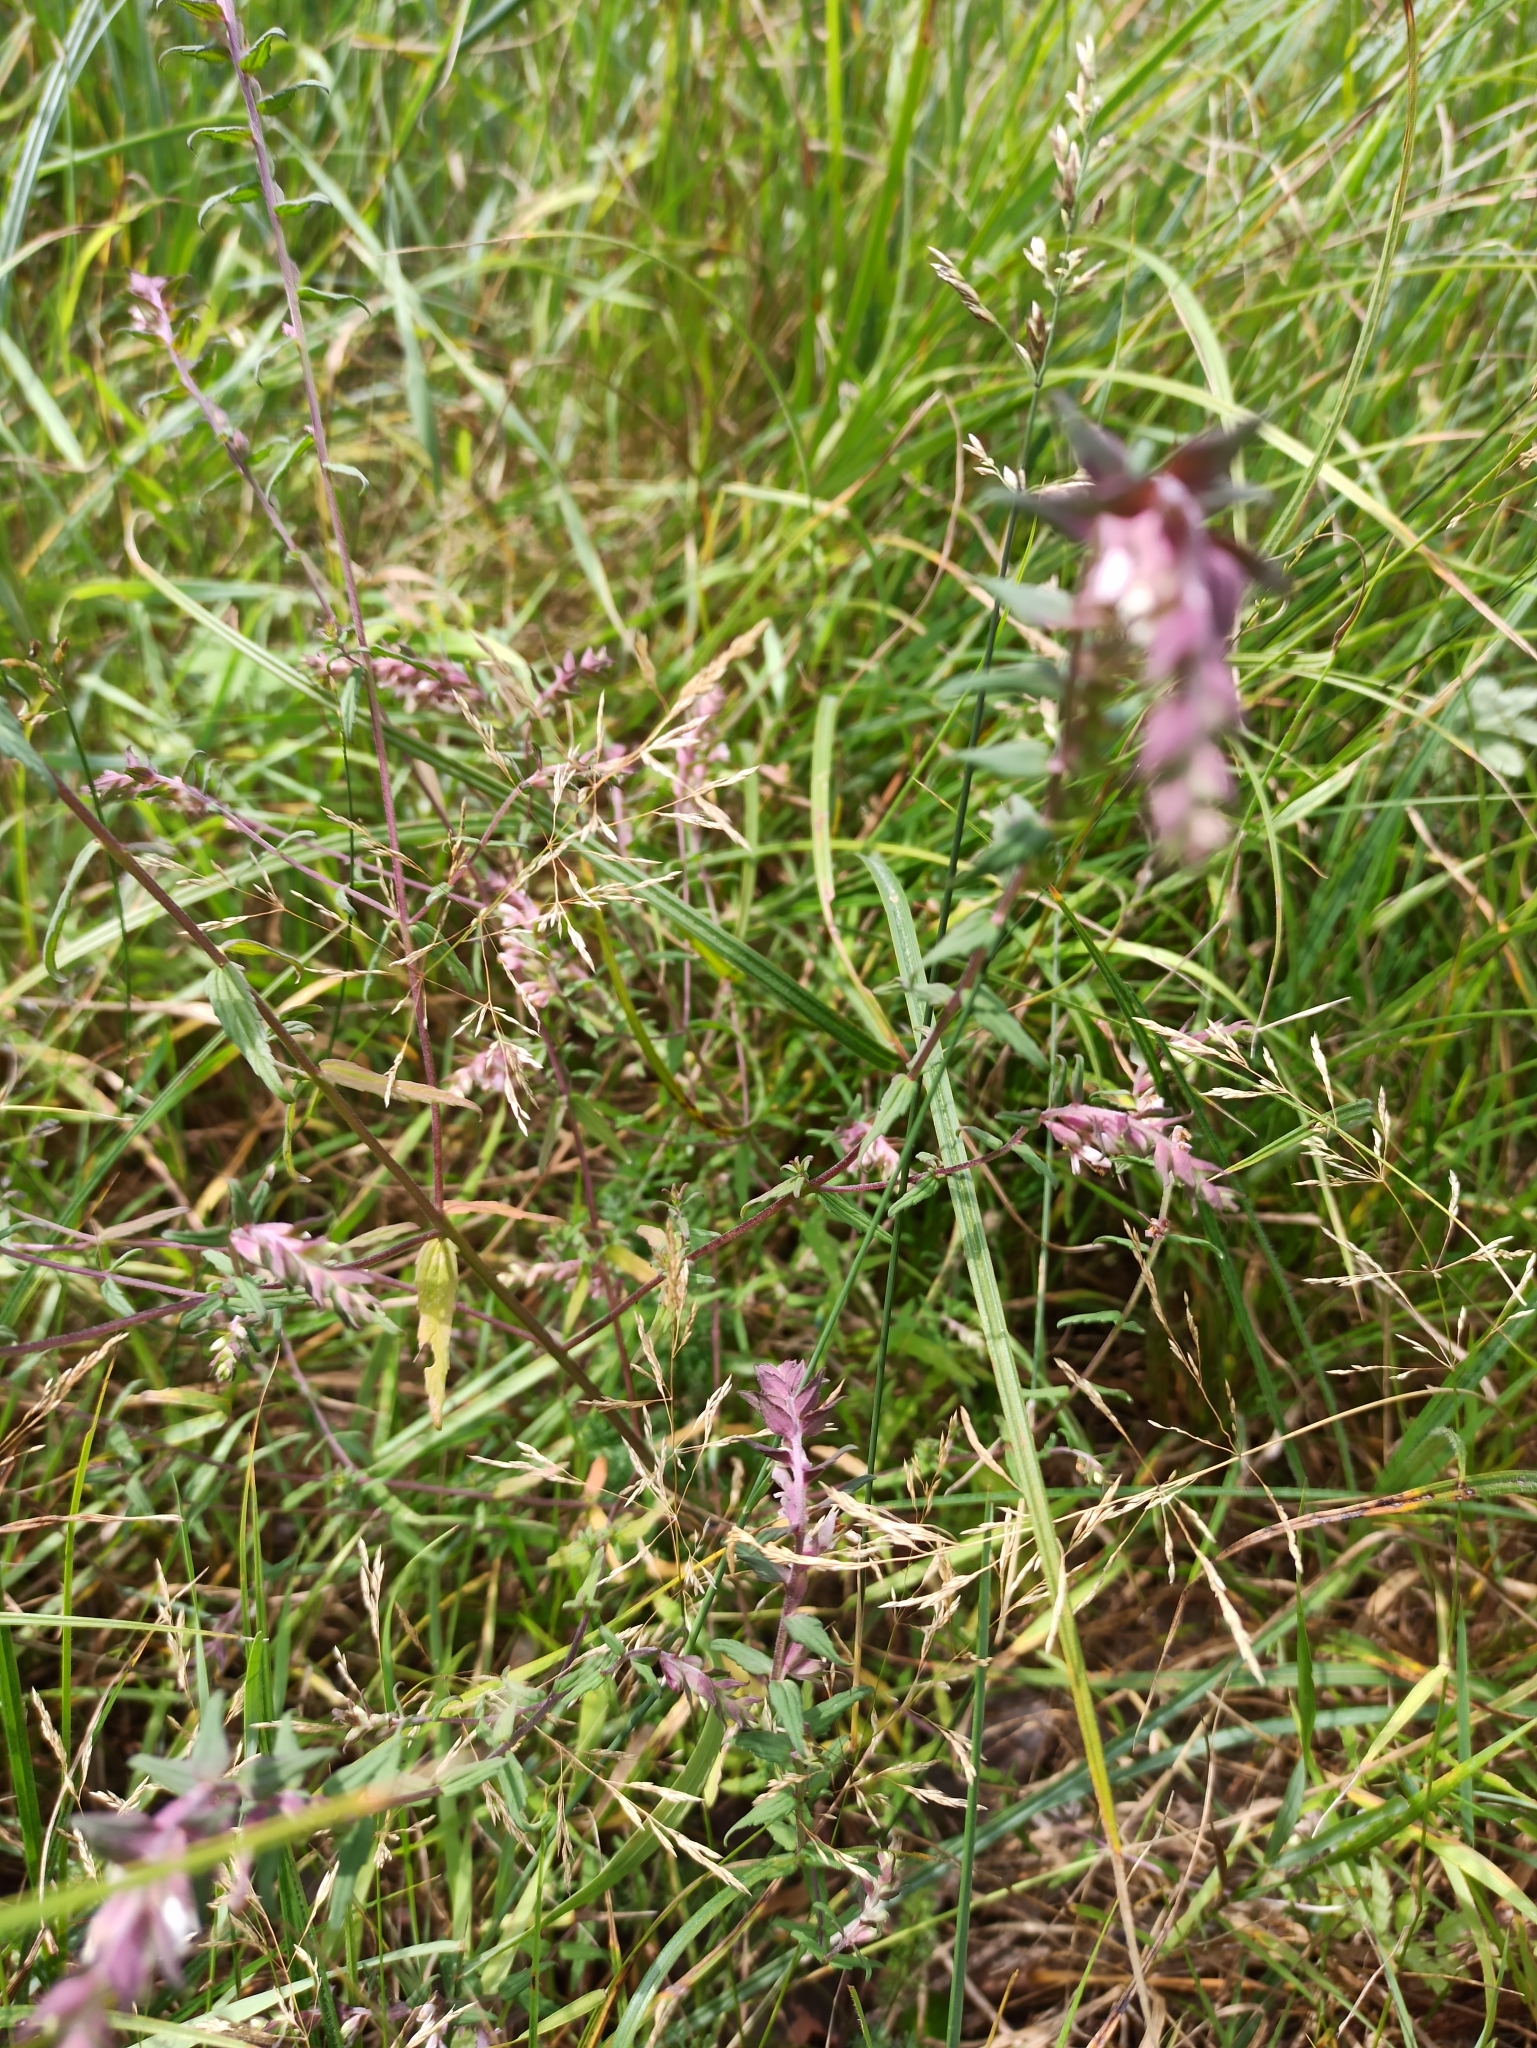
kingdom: Plantae
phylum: Tracheophyta
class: Magnoliopsida
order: Lamiales
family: Orobanchaceae
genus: Odontites
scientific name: Odontites vulgaris
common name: Broomrape
